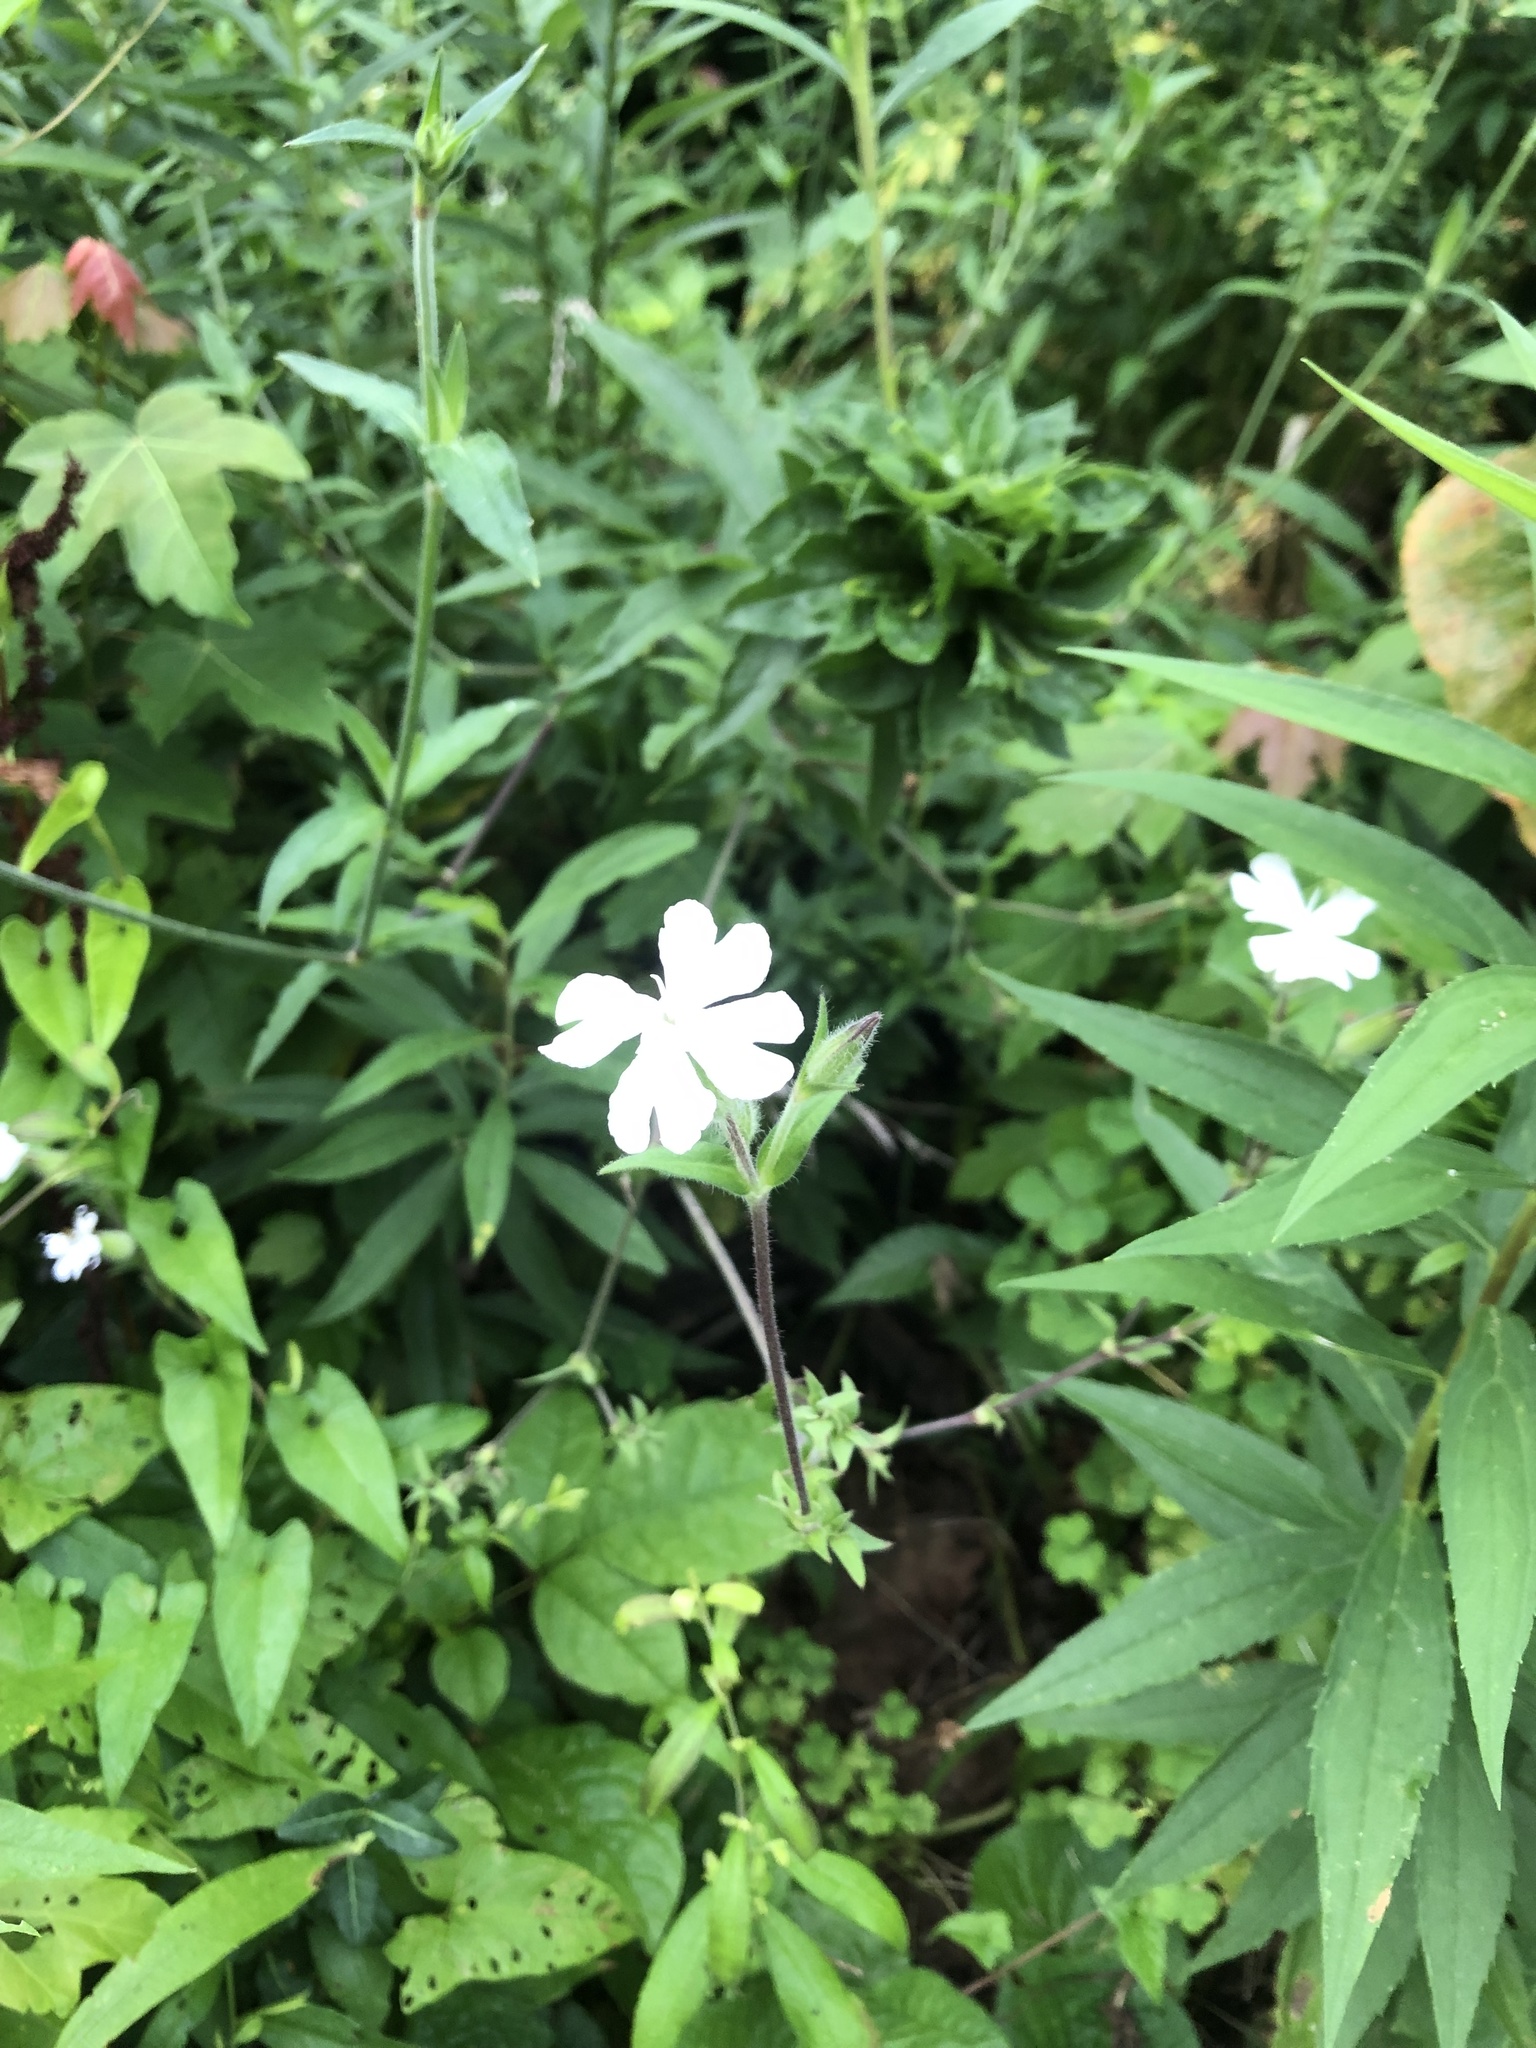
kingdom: Plantae
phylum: Tracheophyta
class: Magnoliopsida
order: Caryophyllales
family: Caryophyllaceae
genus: Silene
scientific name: Silene latifolia
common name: White campion
